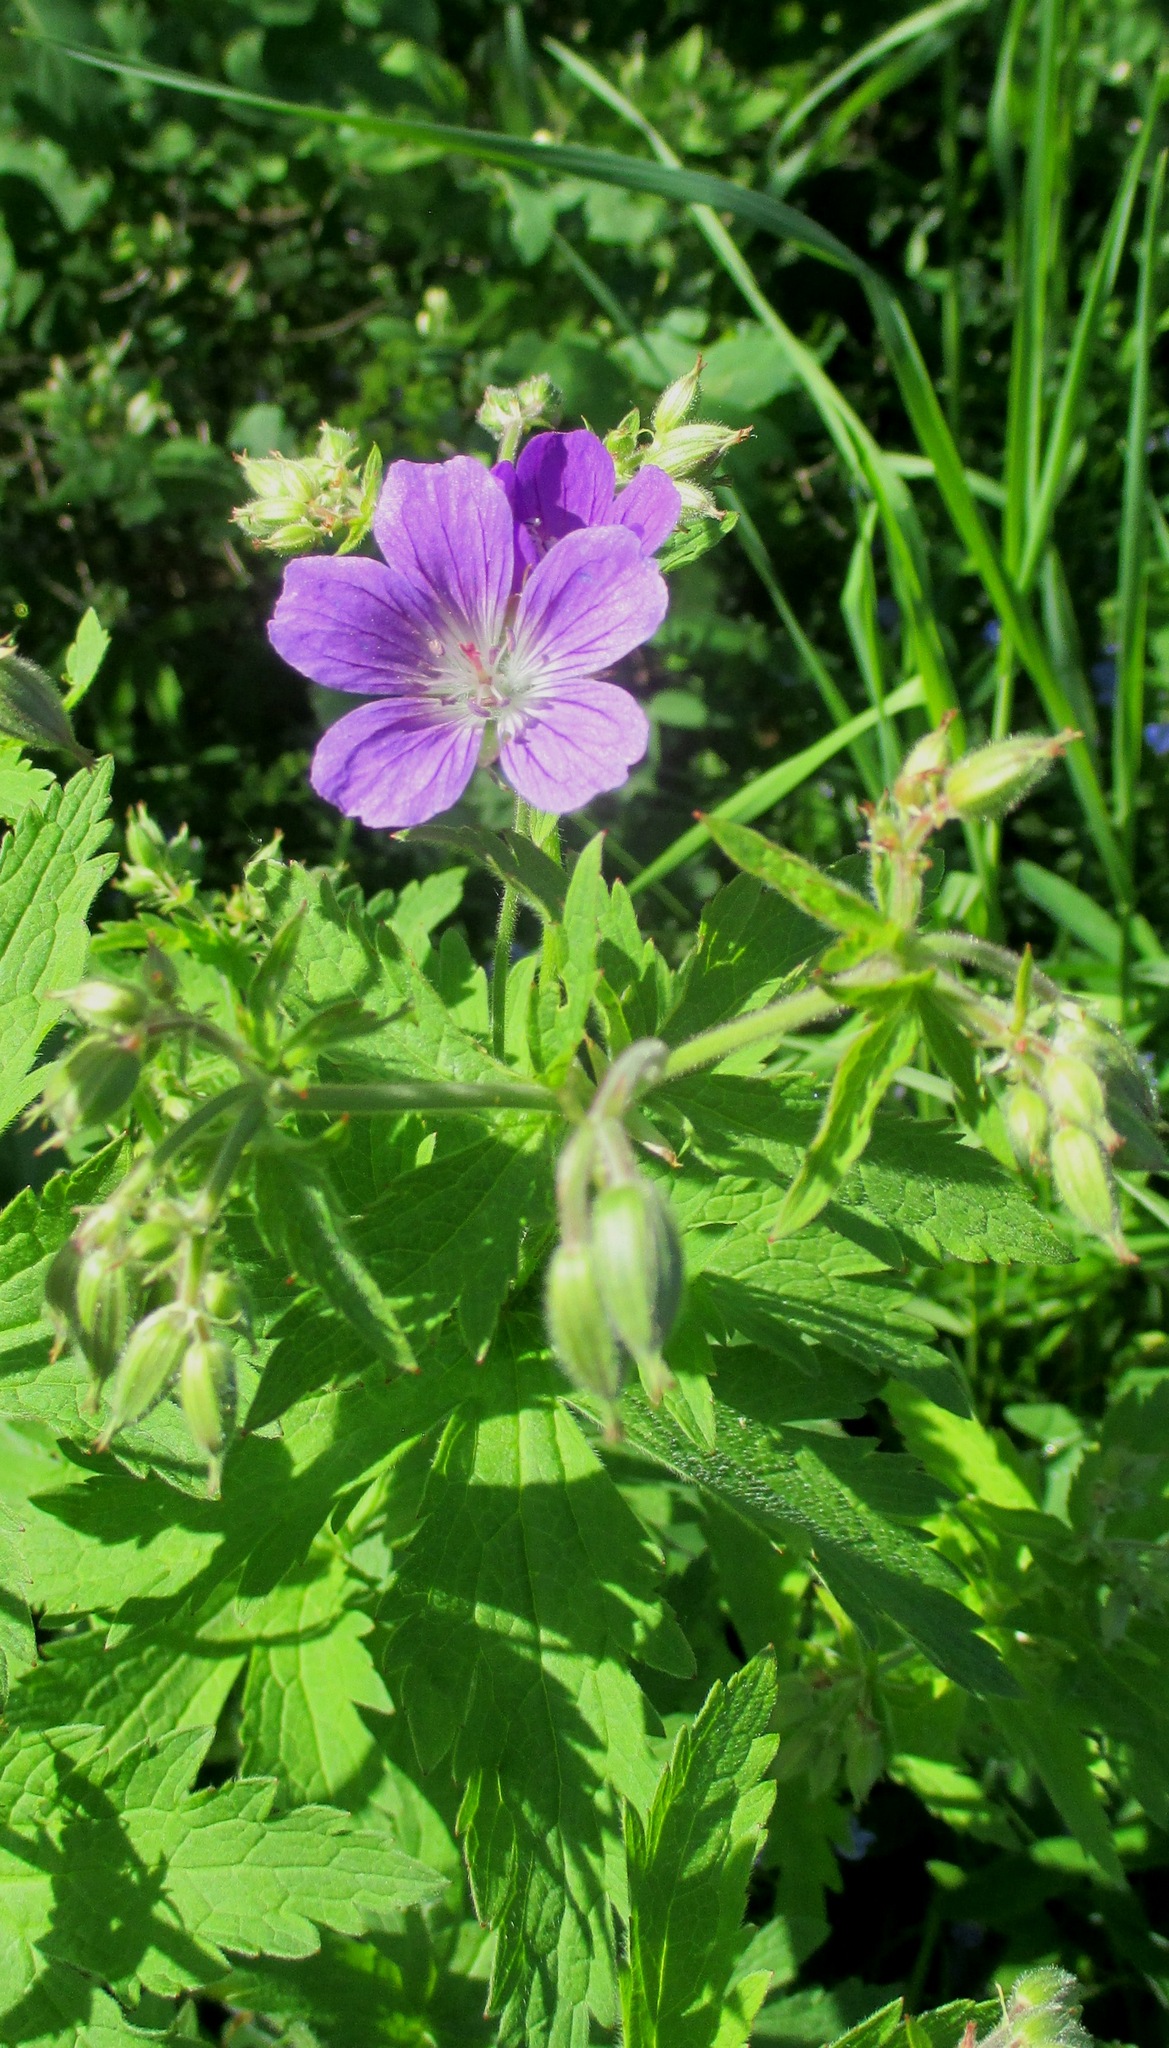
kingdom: Plantae
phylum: Tracheophyta
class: Magnoliopsida
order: Geraniales
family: Geraniaceae
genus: Geranium
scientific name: Geranium sylvaticum
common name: Wood crane's-bill
